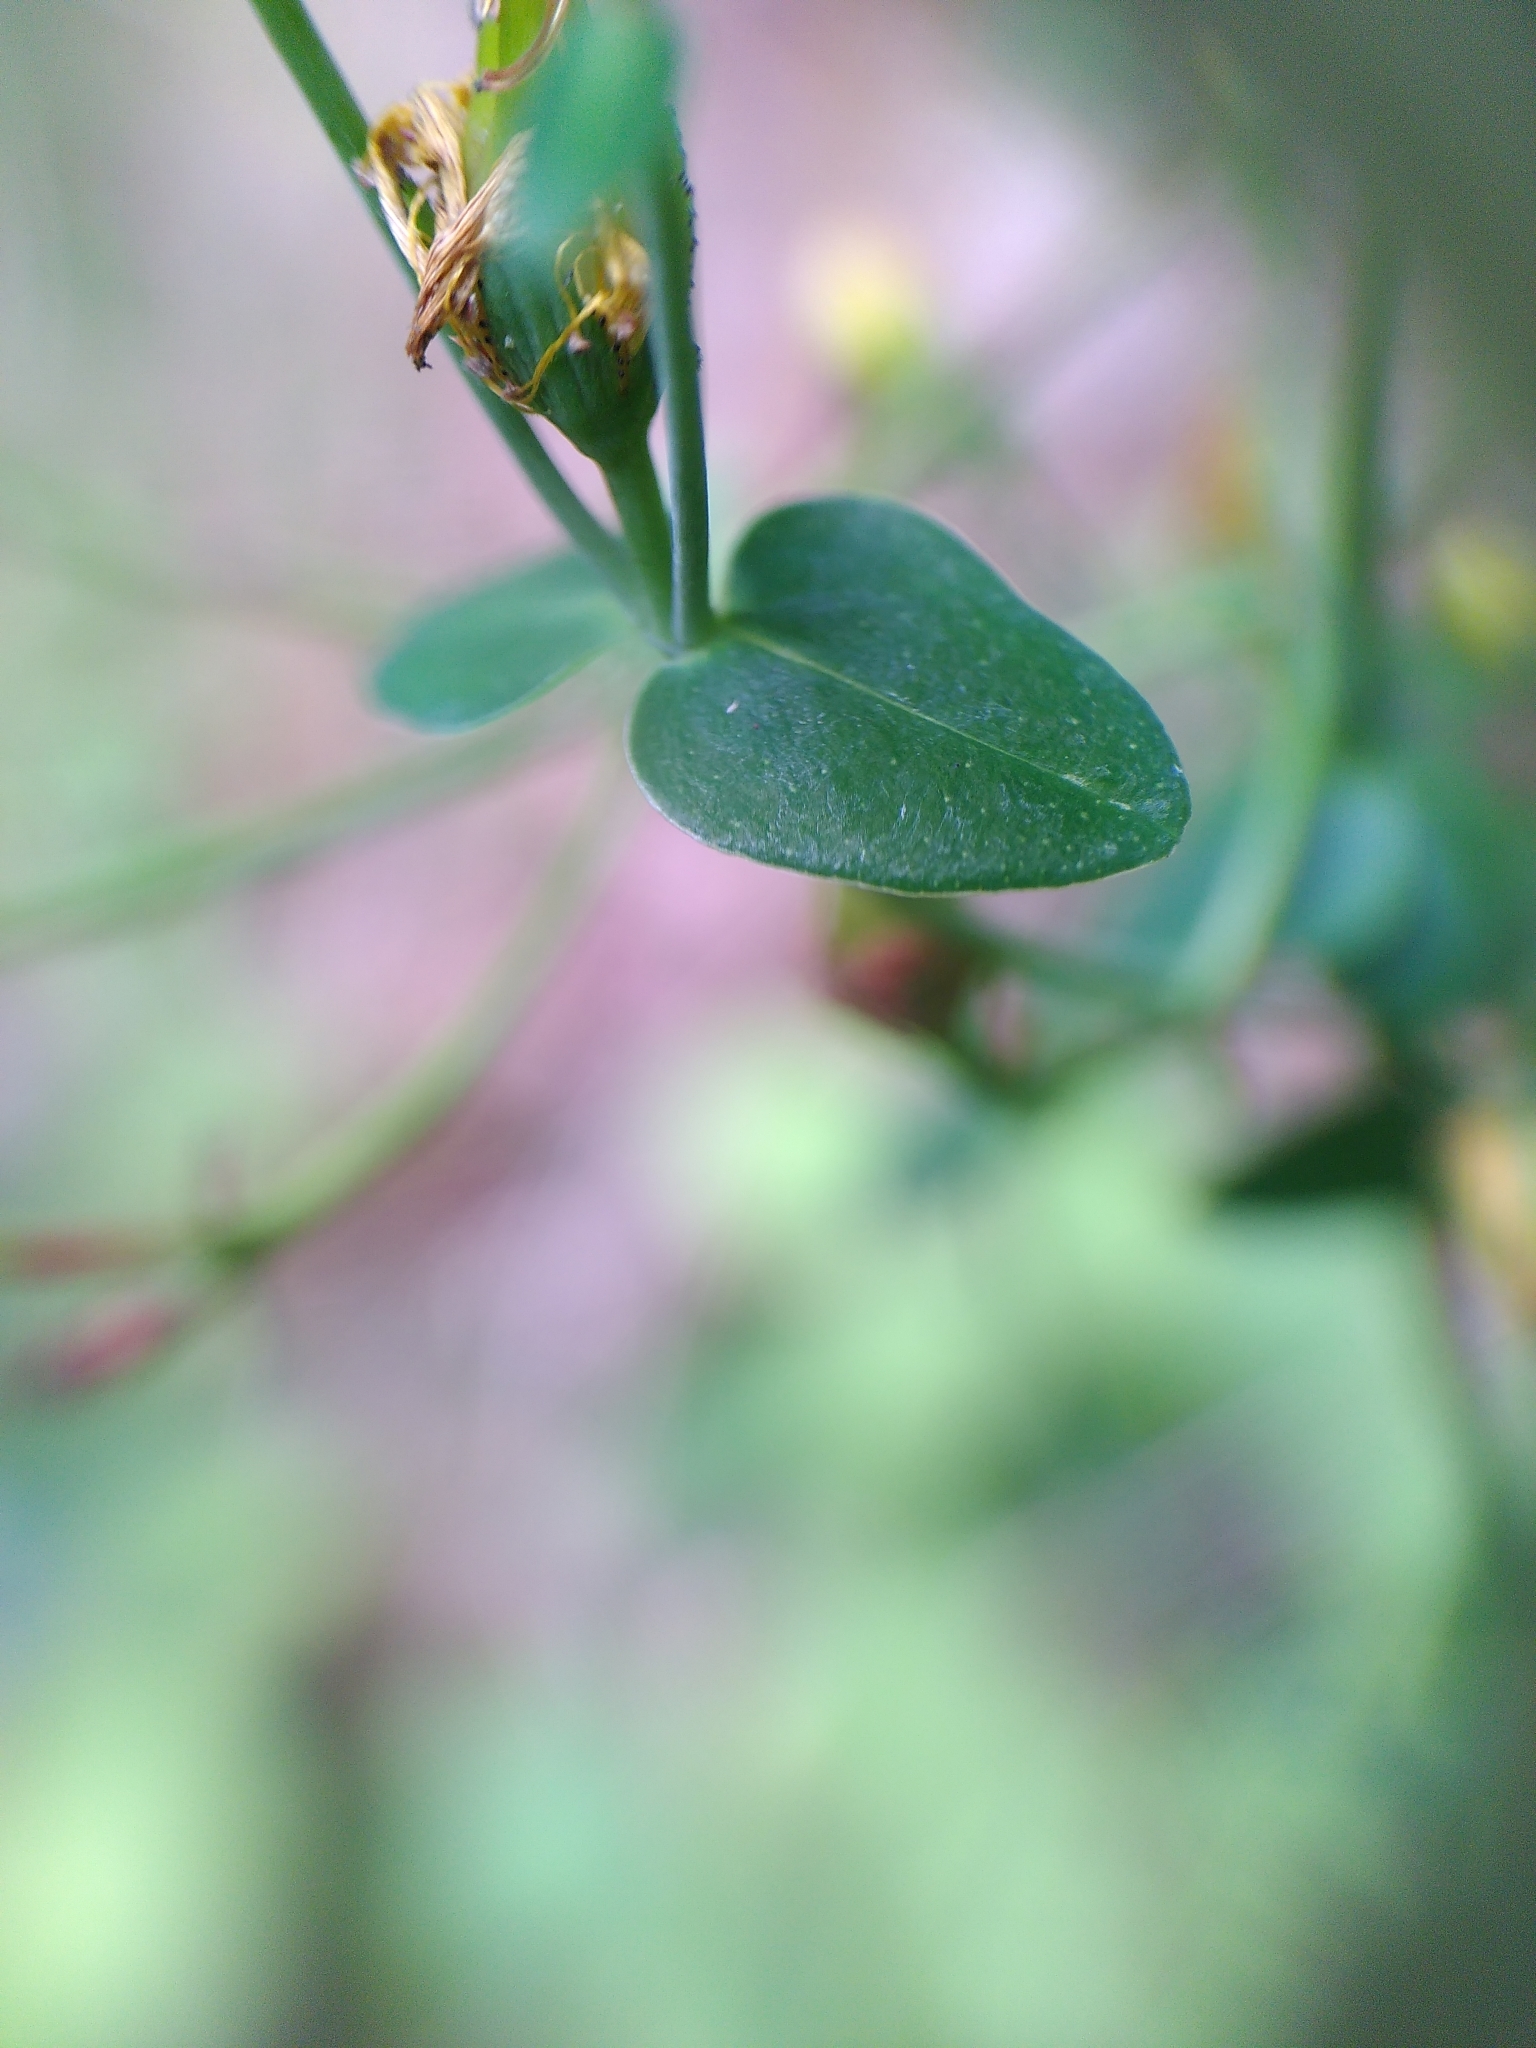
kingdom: Plantae
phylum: Tracheophyta
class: Magnoliopsida
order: Malpighiales
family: Hypericaceae
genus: Hypericum
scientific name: Hypericum pulchrum
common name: Slender st. john's-wort
